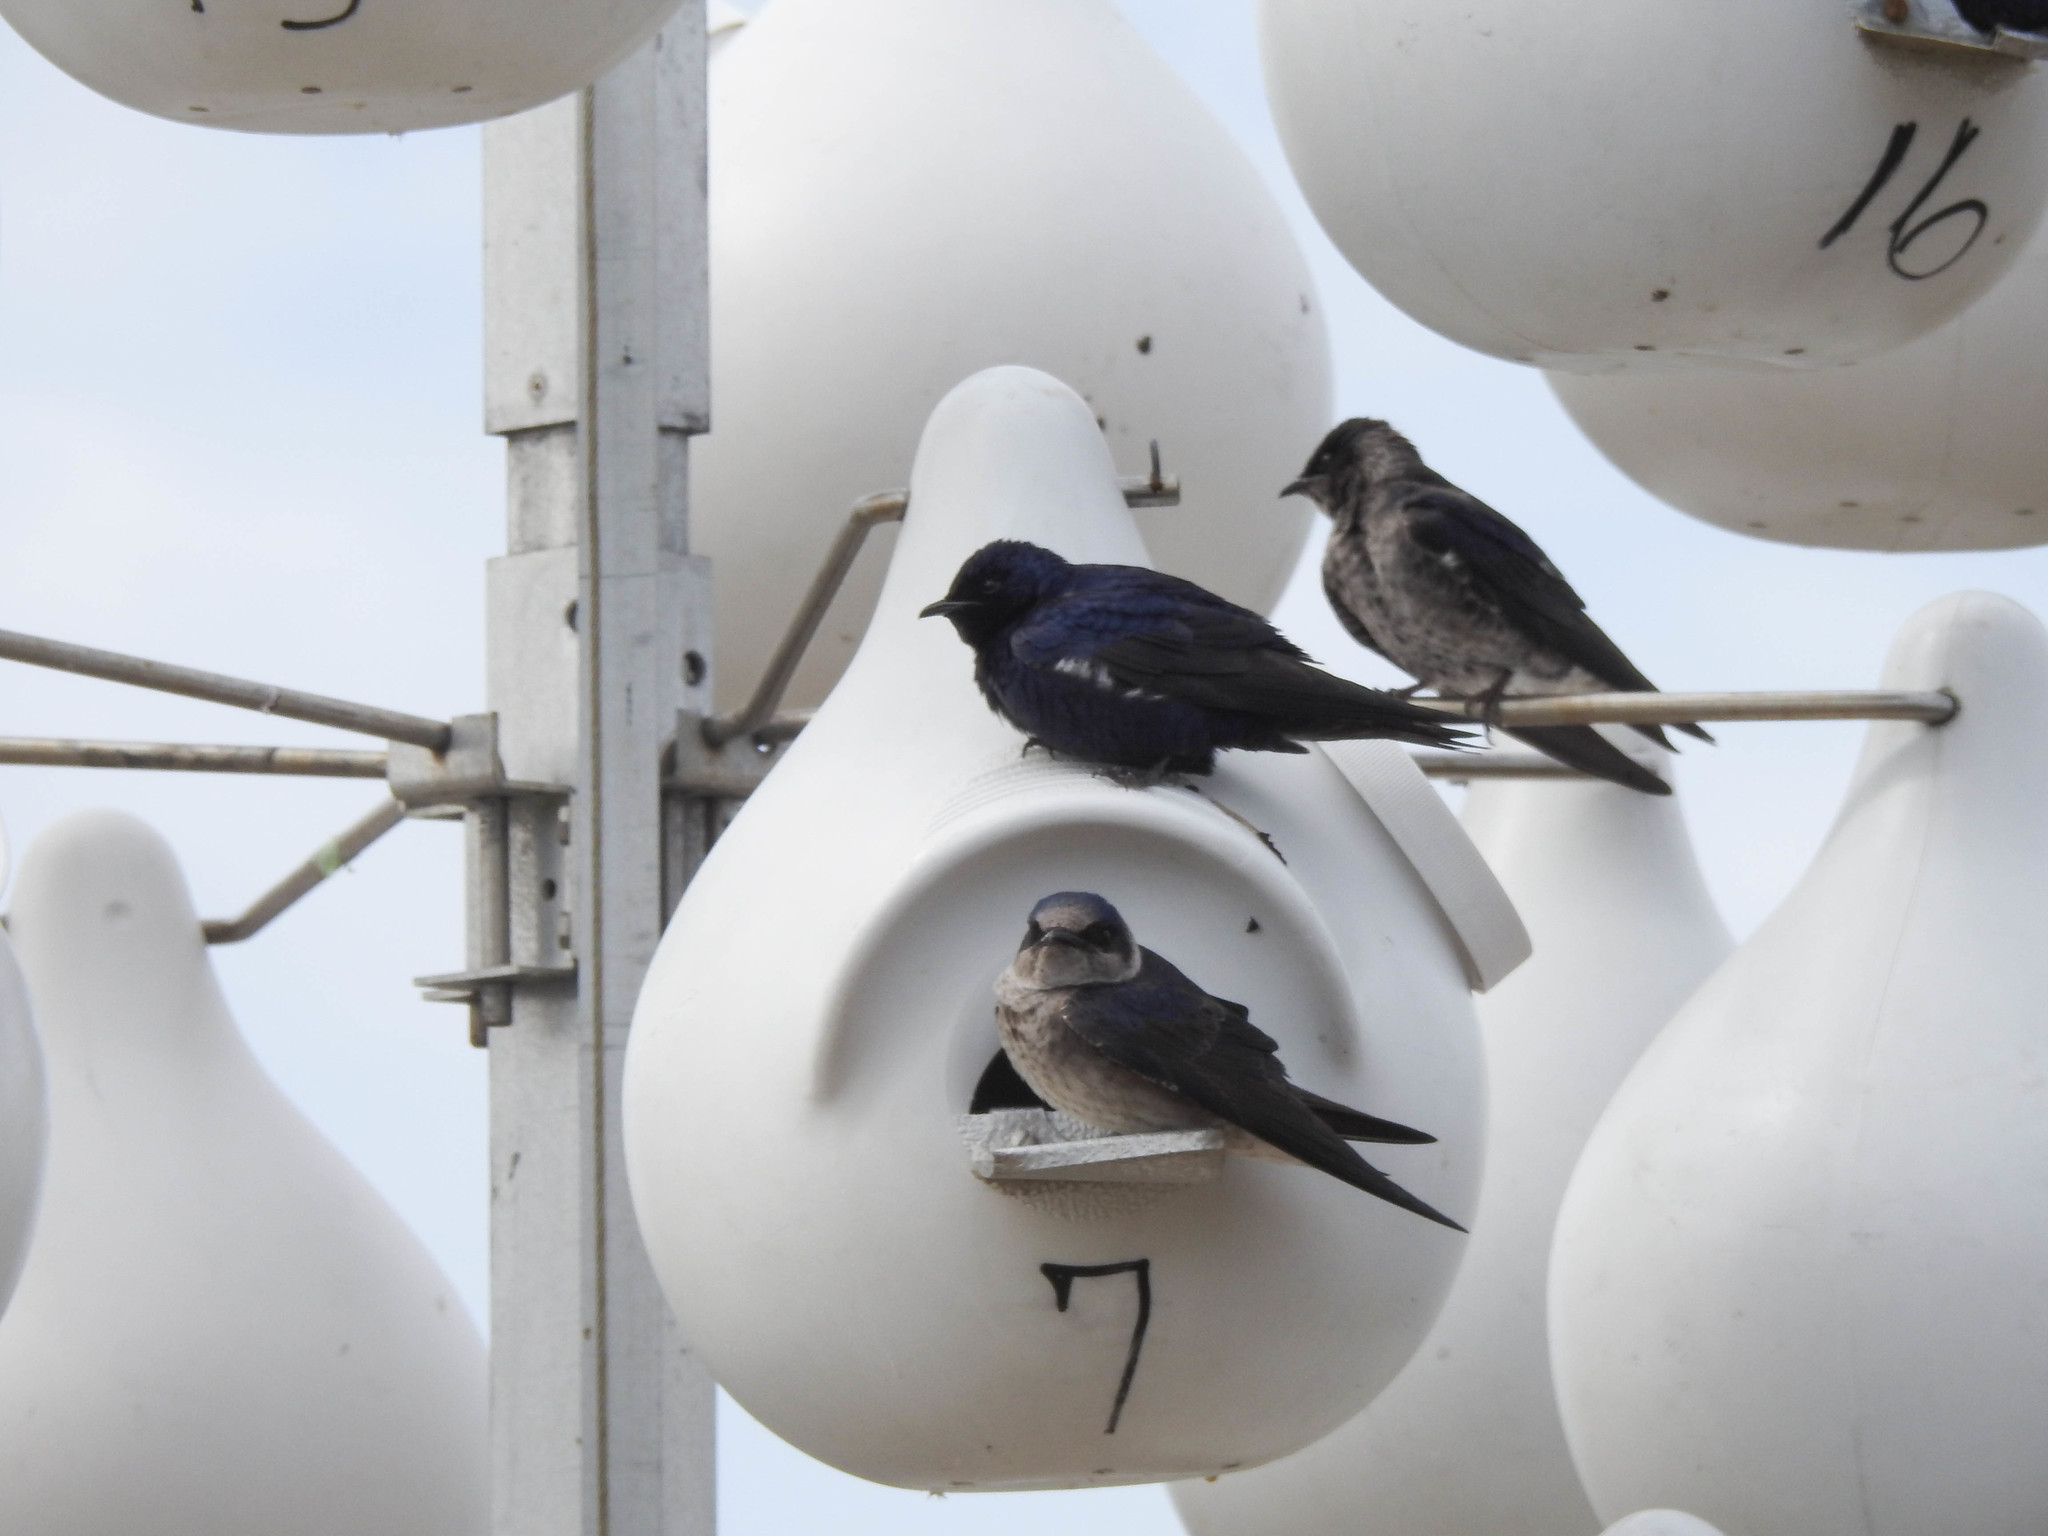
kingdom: Animalia
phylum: Chordata
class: Aves
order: Passeriformes
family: Hirundinidae
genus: Progne
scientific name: Progne subis
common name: Purple martin
